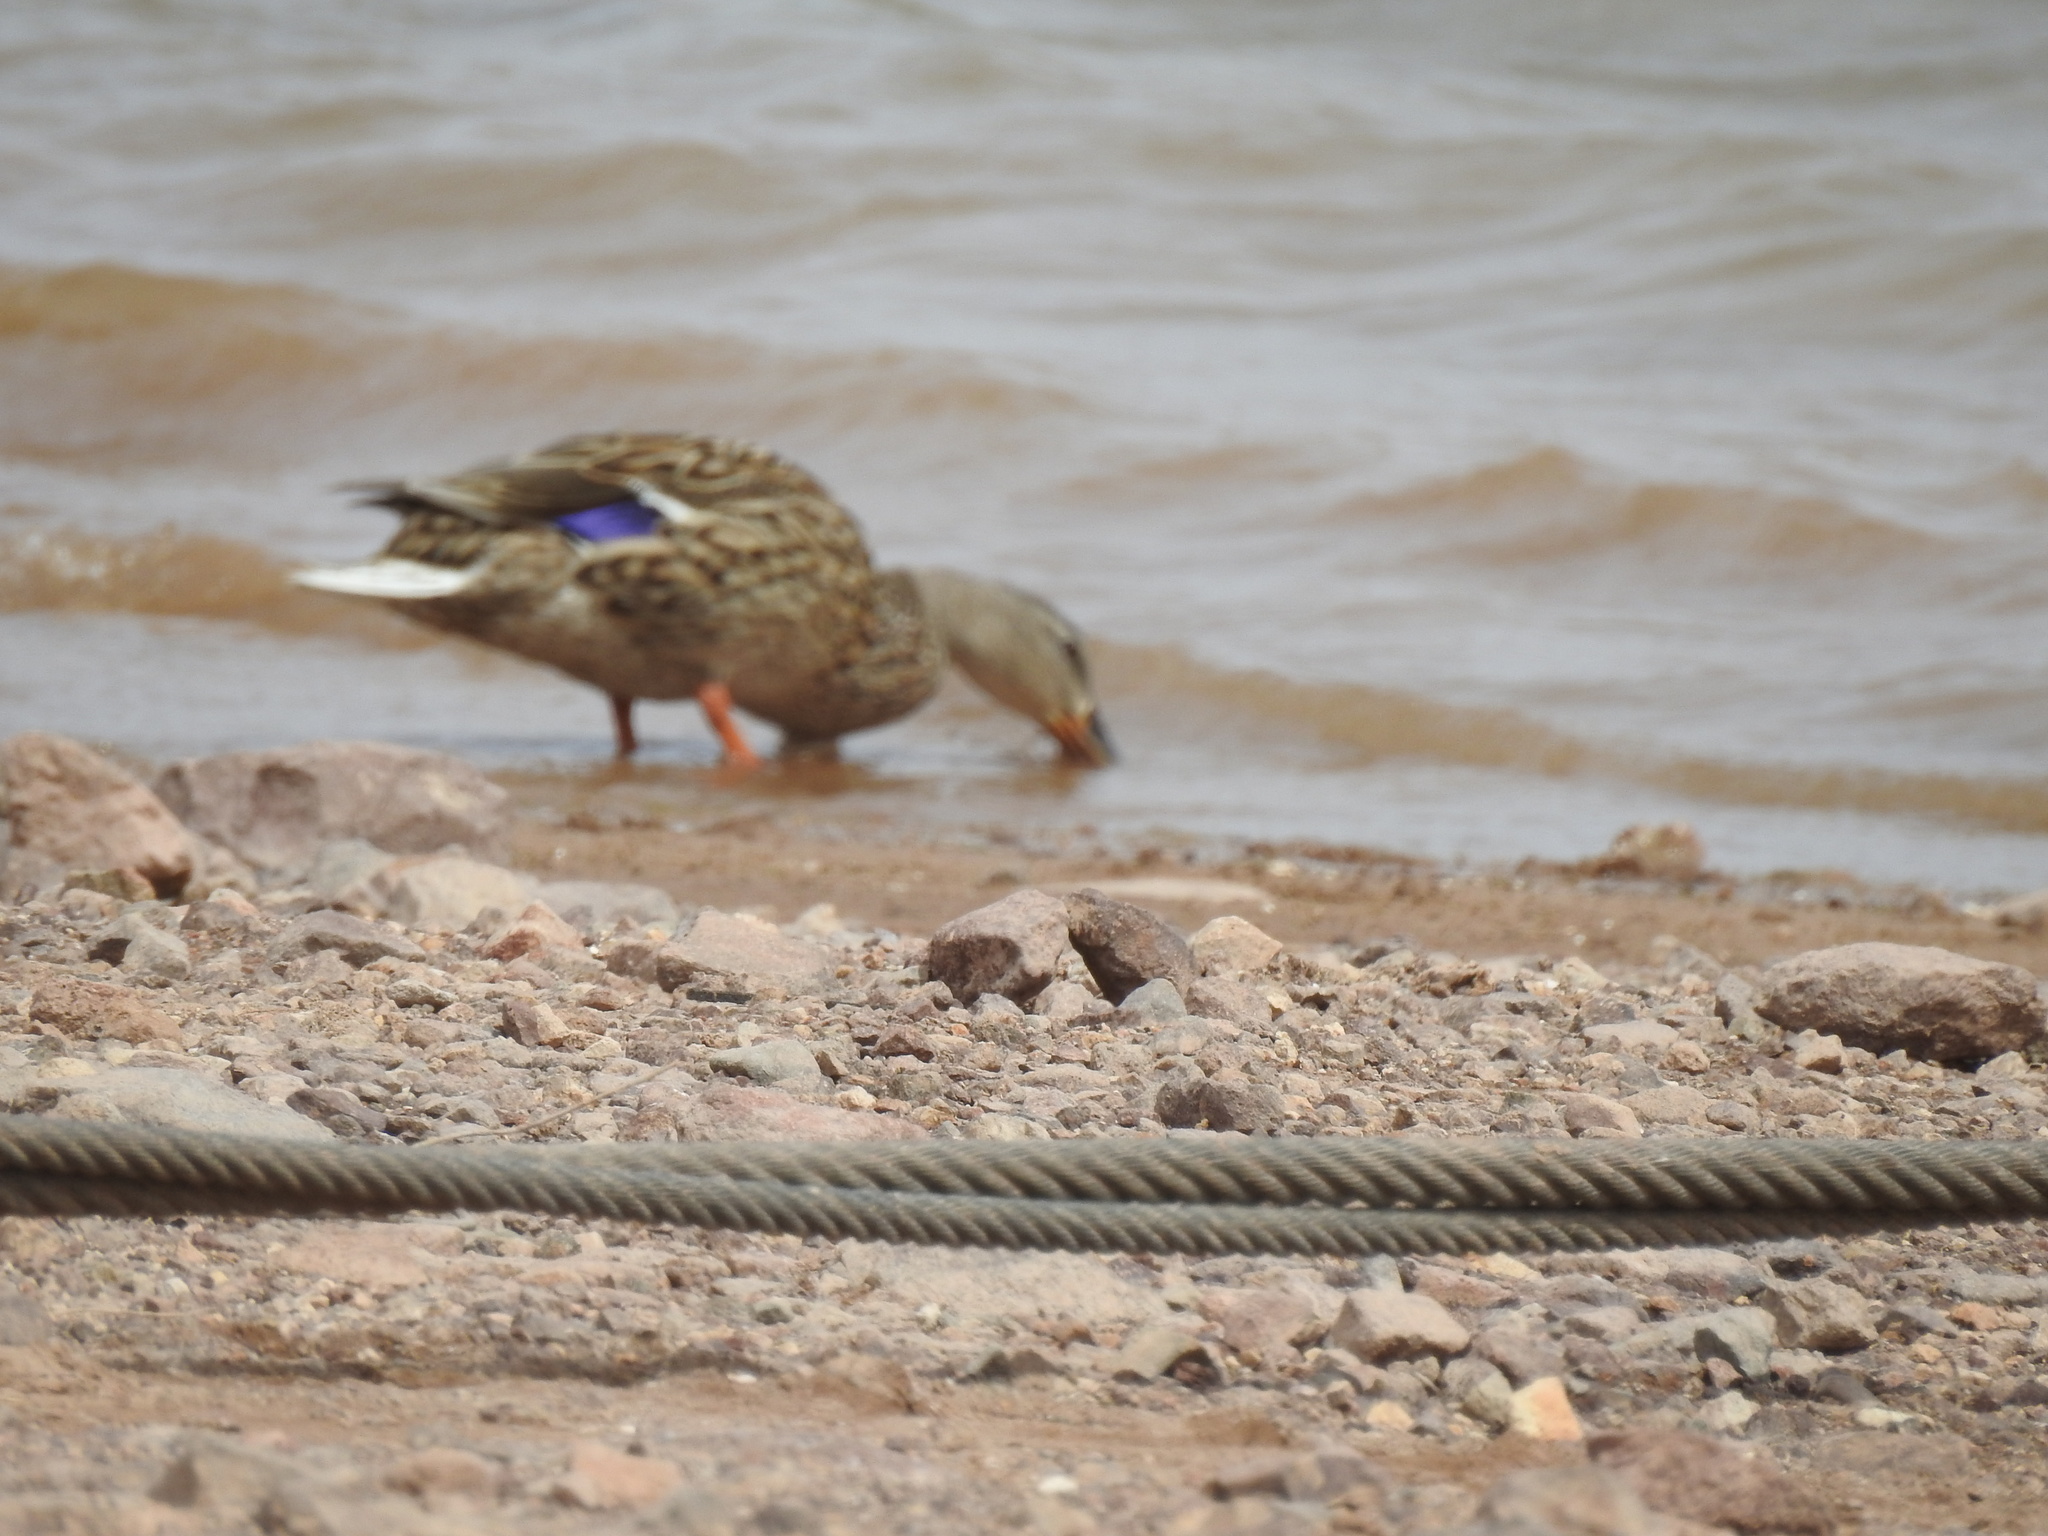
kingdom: Animalia
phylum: Chordata
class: Aves
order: Anseriformes
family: Anatidae
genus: Anas
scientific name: Anas platyrhynchos
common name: Mallard
